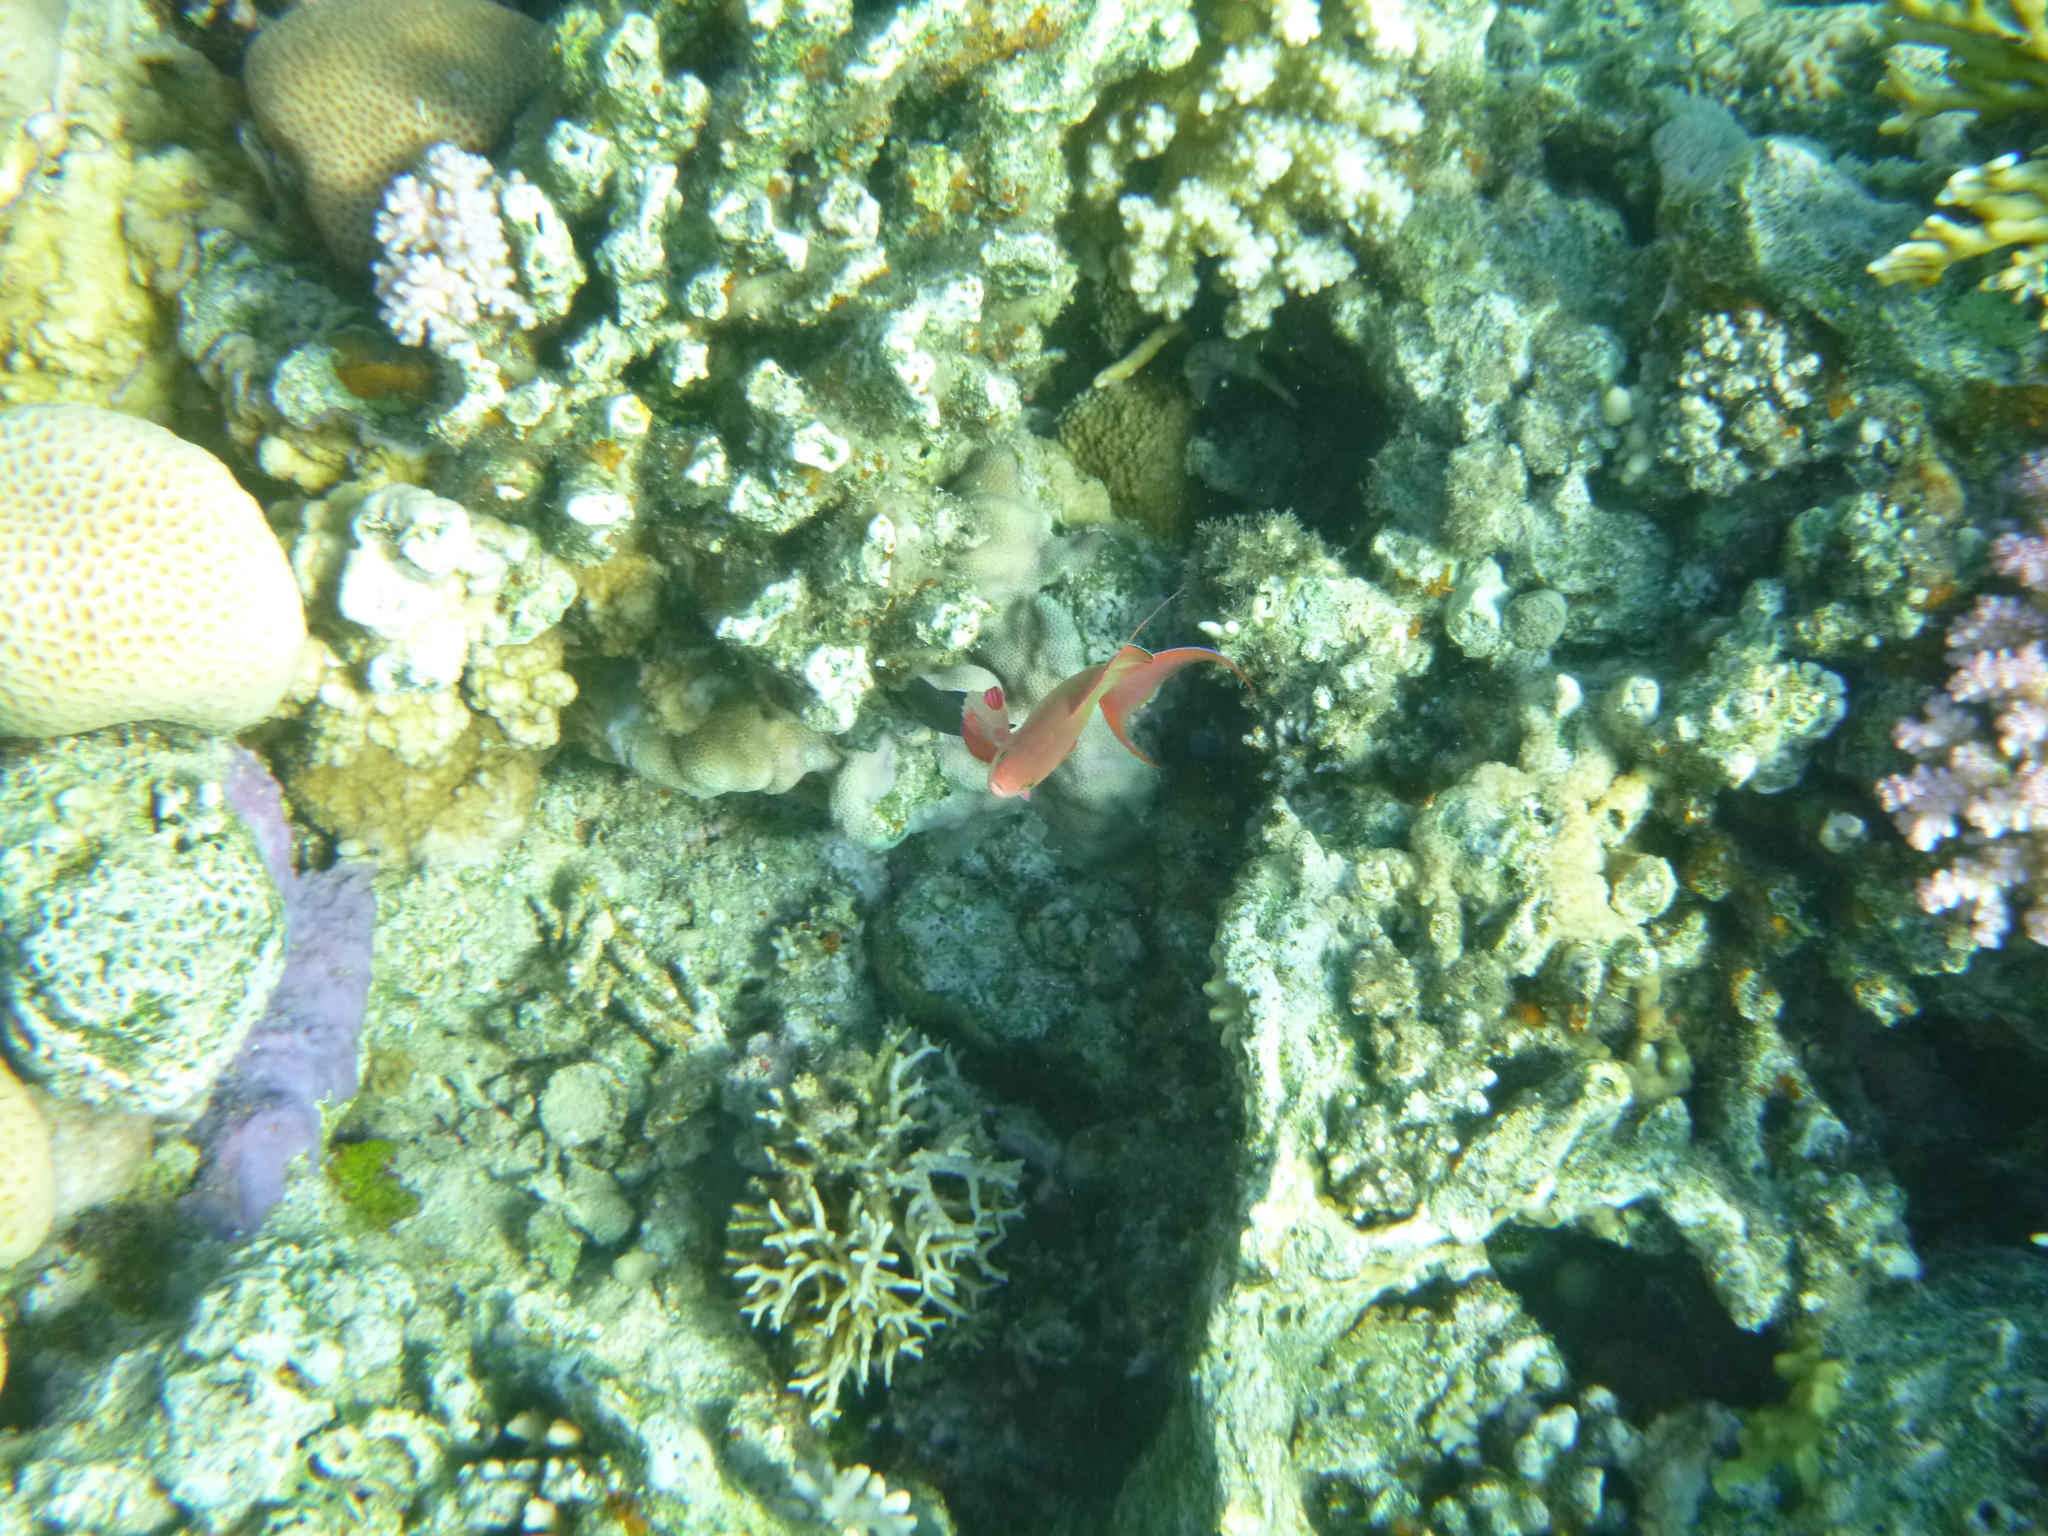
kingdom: Animalia
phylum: Chordata
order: Perciformes
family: Serranidae
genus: Pseudanthias
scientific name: Pseudanthias squamipinnis
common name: Scalefin anthias
